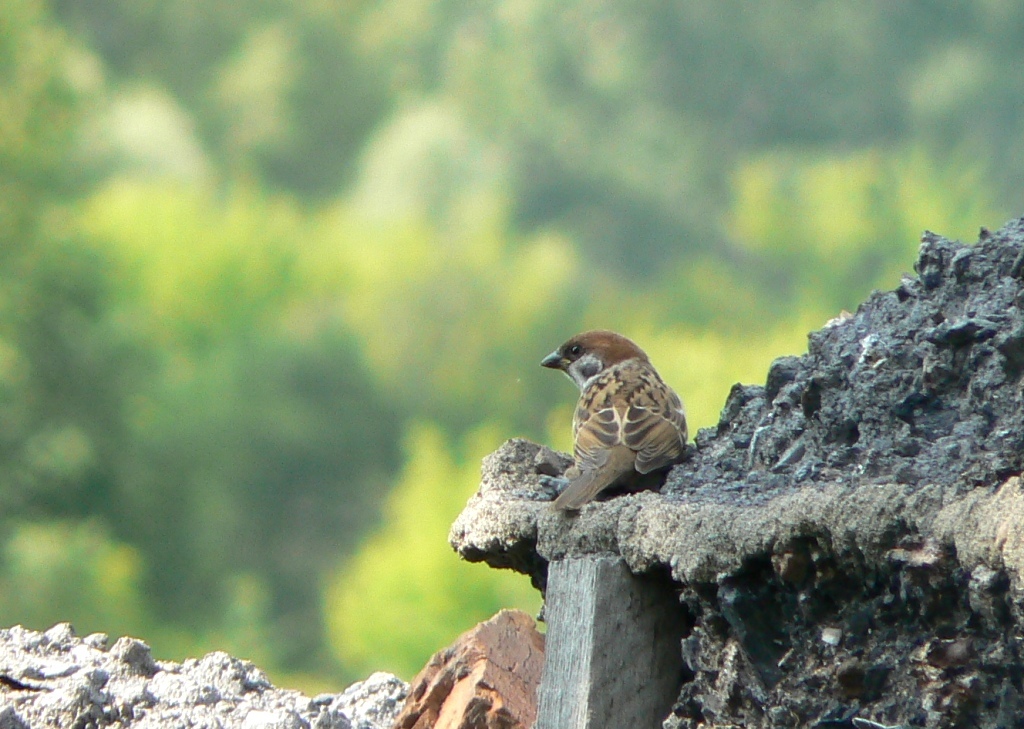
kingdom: Animalia
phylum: Chordata
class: Aves
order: Passeriformes
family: Passeridae
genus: Passer
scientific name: Passer montanus
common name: Eurasian tree sparrow
